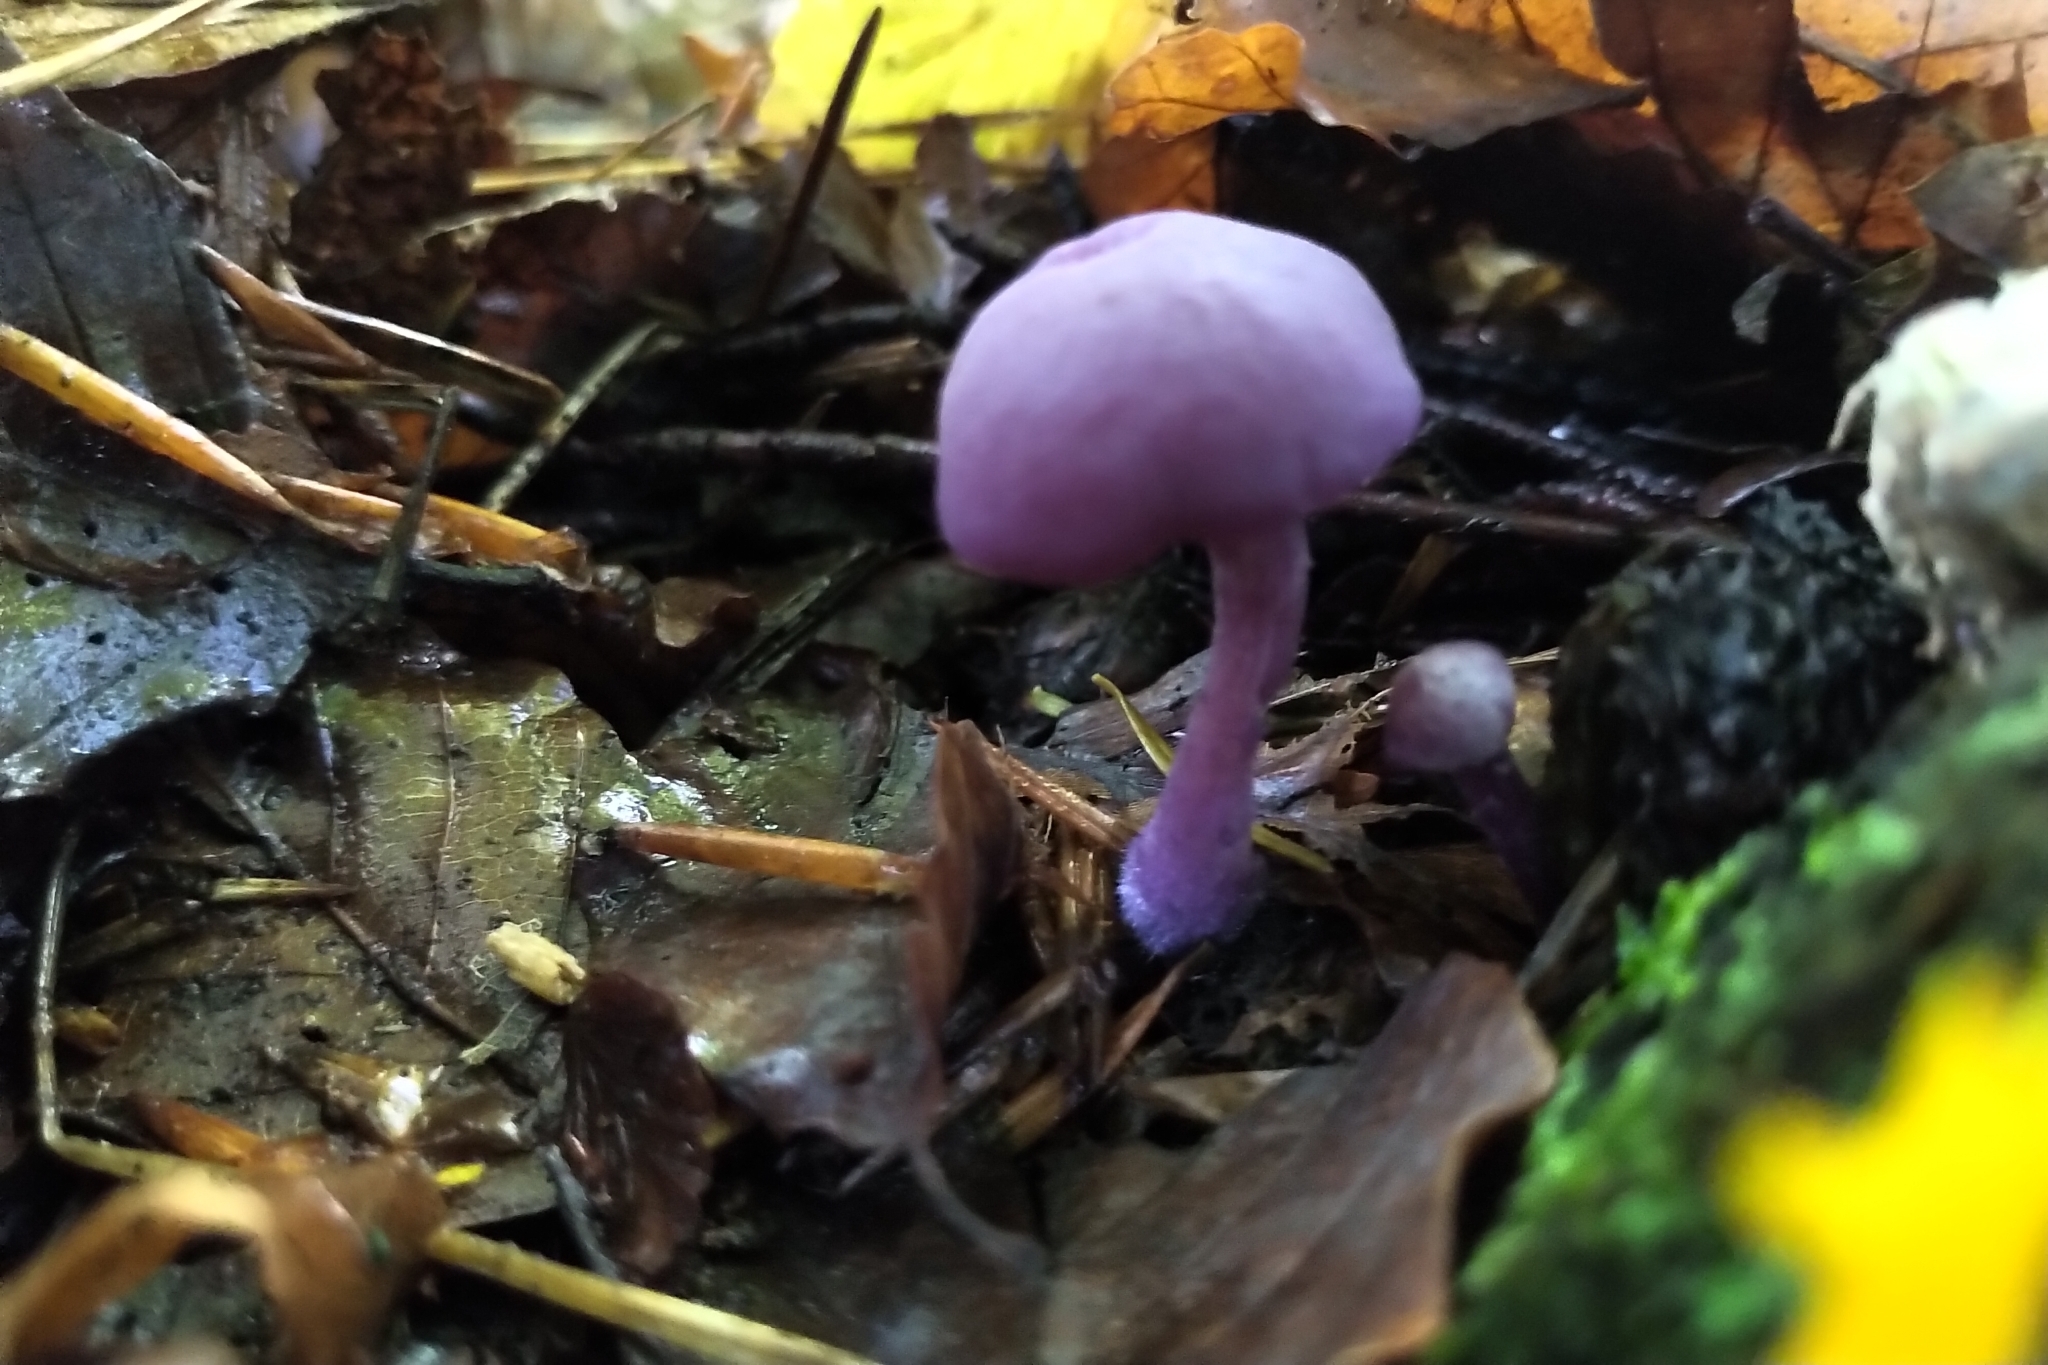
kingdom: Fungi
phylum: Basidiomycota
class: Agaricomycetes
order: Agaricales
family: Hydnangiaceae
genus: Laccaria
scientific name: Laccaria amethystina
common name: Amethyst deceiver
